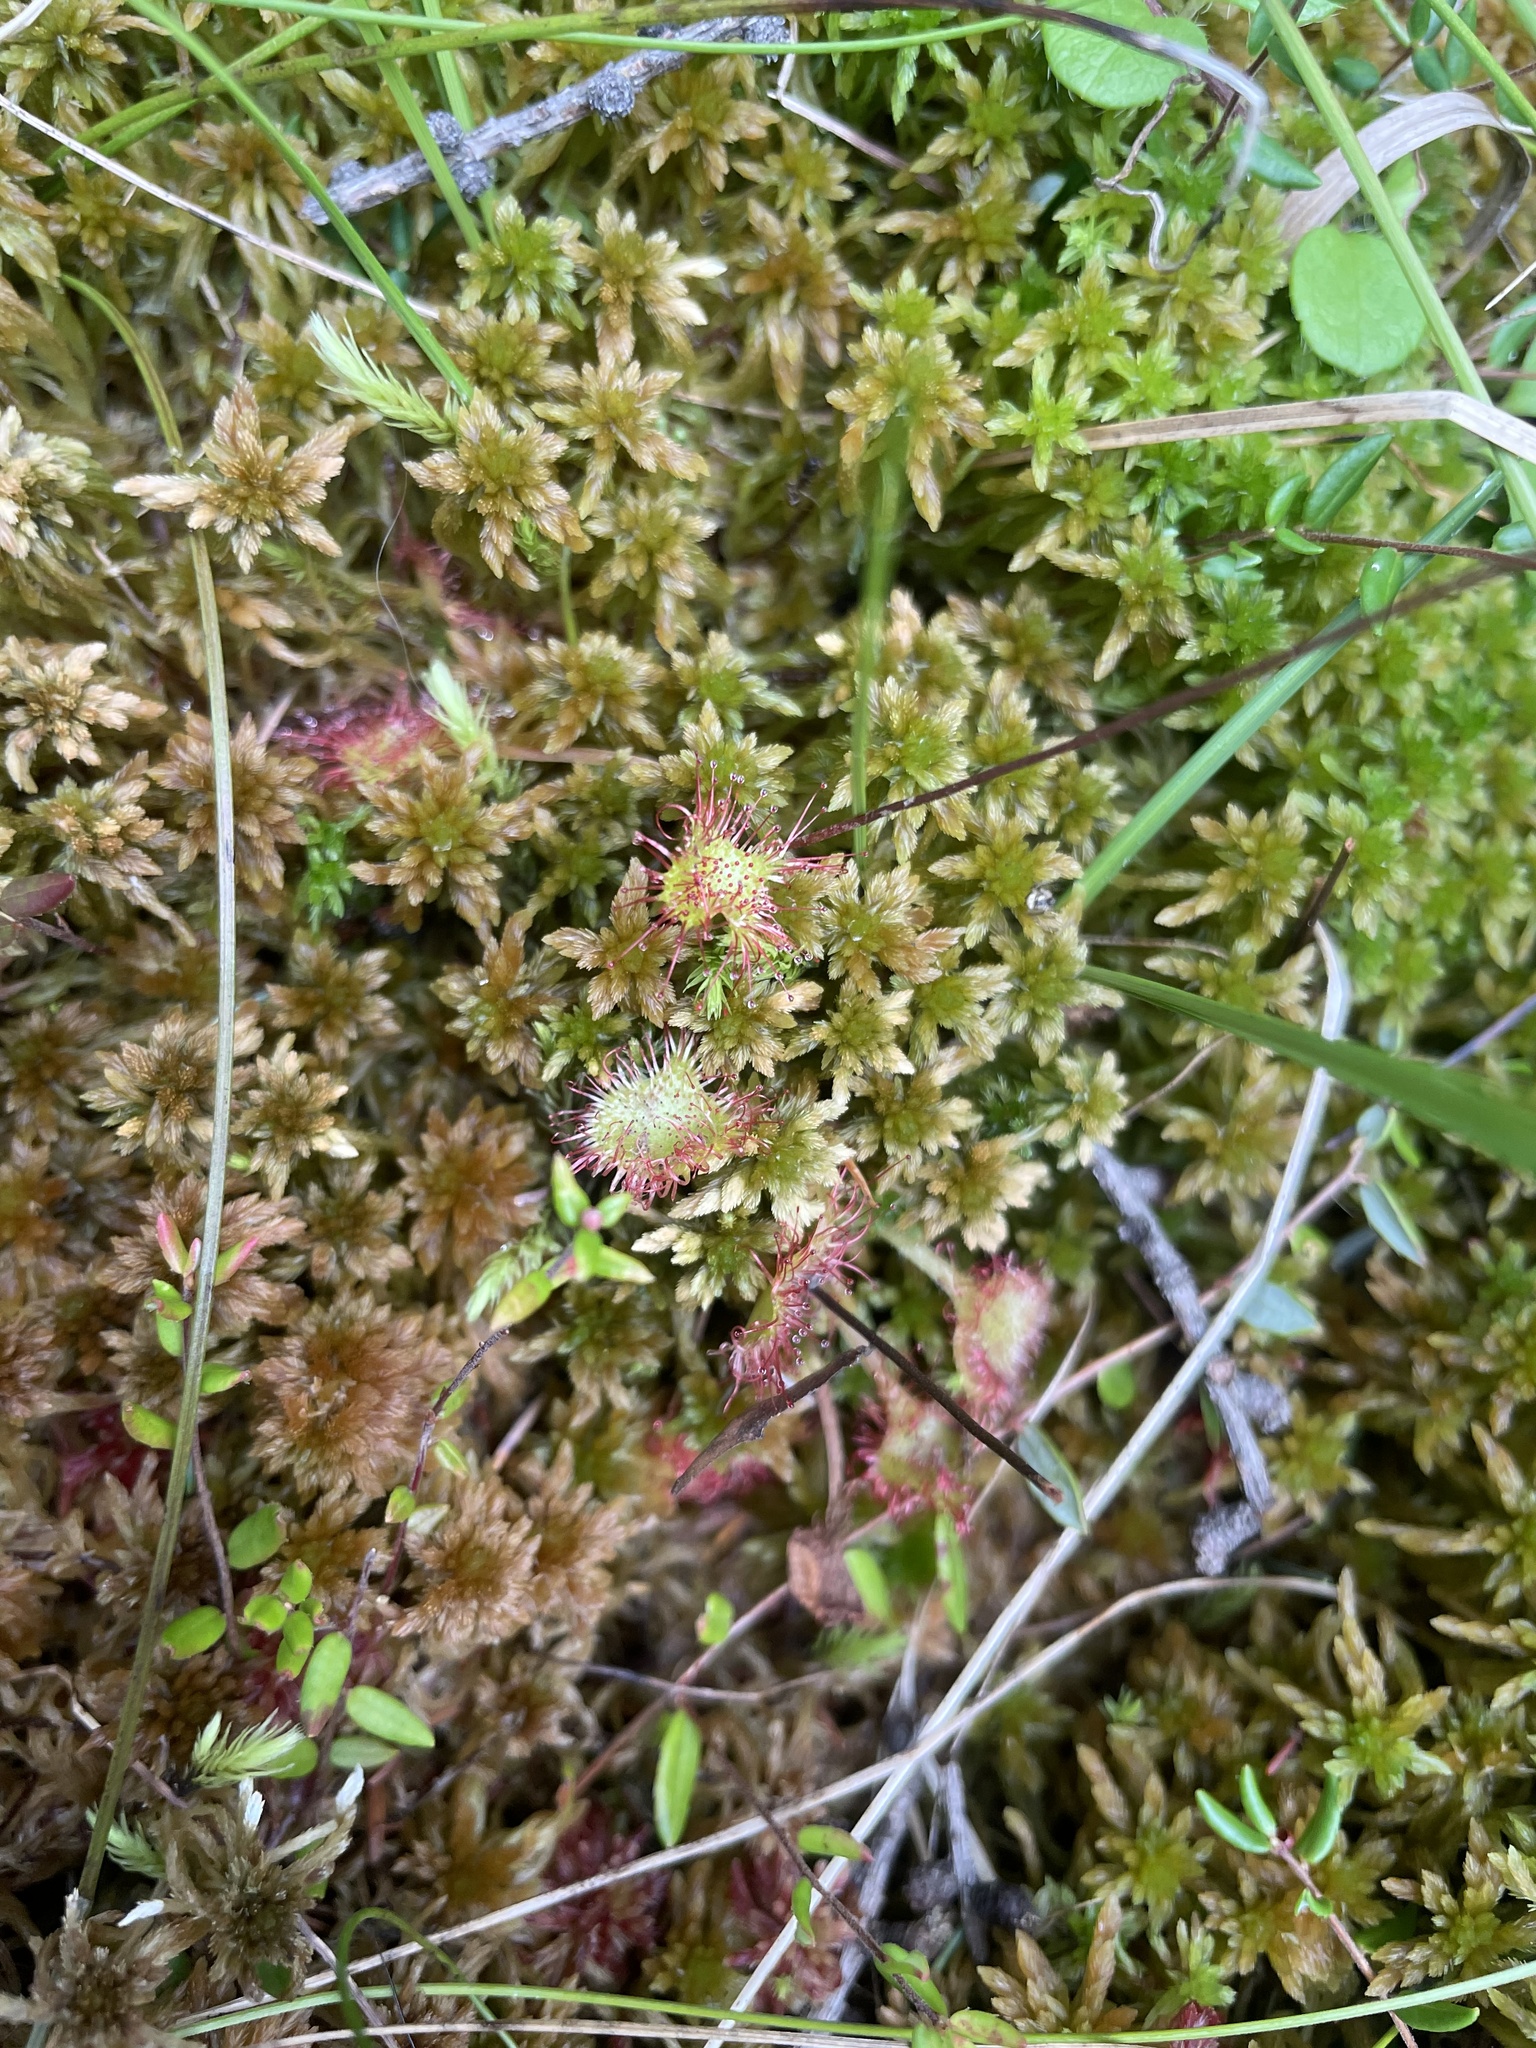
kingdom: Plantae
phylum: Tracheophyta
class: Magnoliopsida
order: Caryophyllales
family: Droseraceae
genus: Drosera
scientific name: Drosera rotundifolia
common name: Round-leaved sundew
